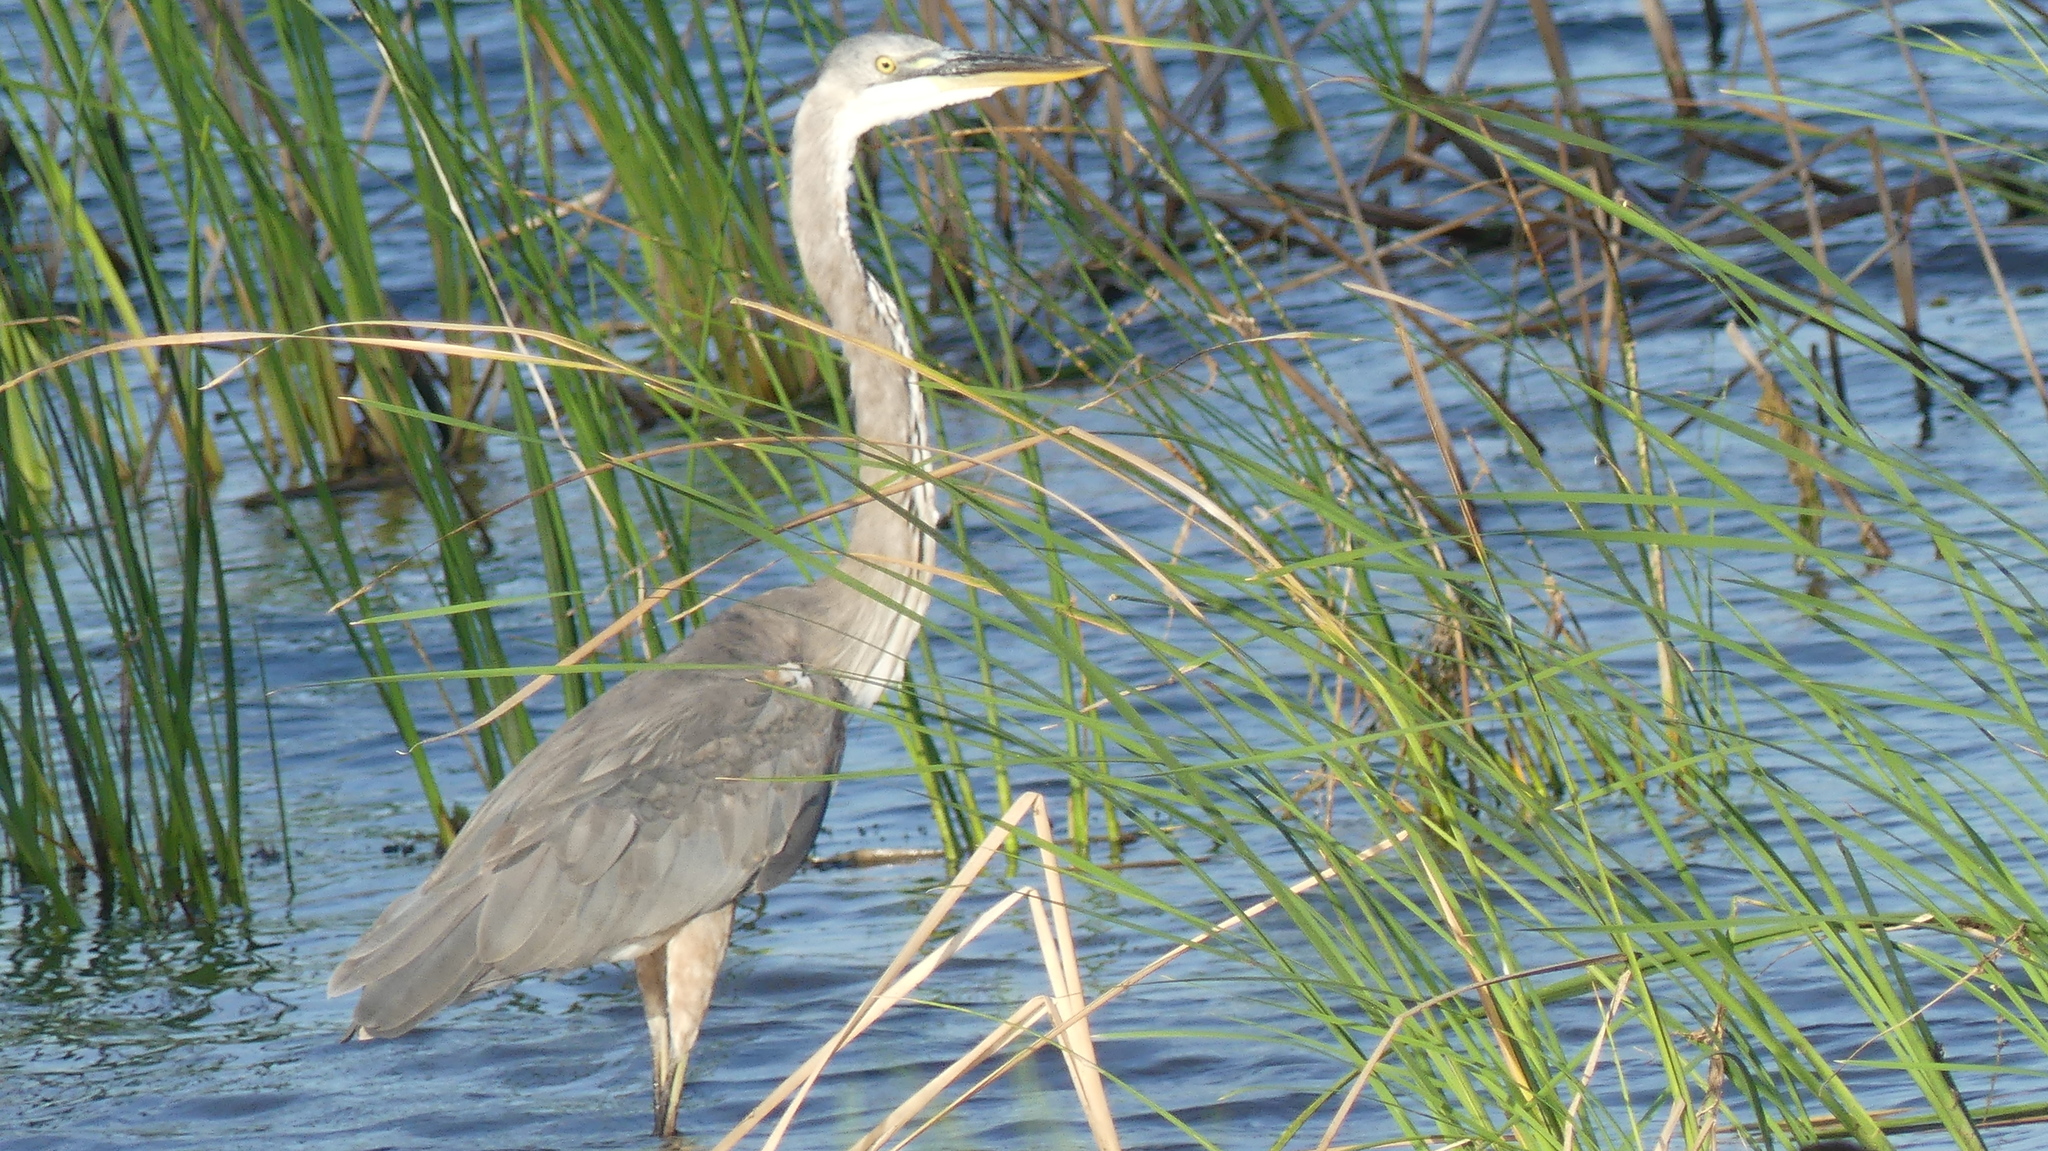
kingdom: Animalia
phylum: Chordata
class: Aves
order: Pelecaniformes
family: Ardeidae
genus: Ardea
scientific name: Ardea herodias
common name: Great blue heron
